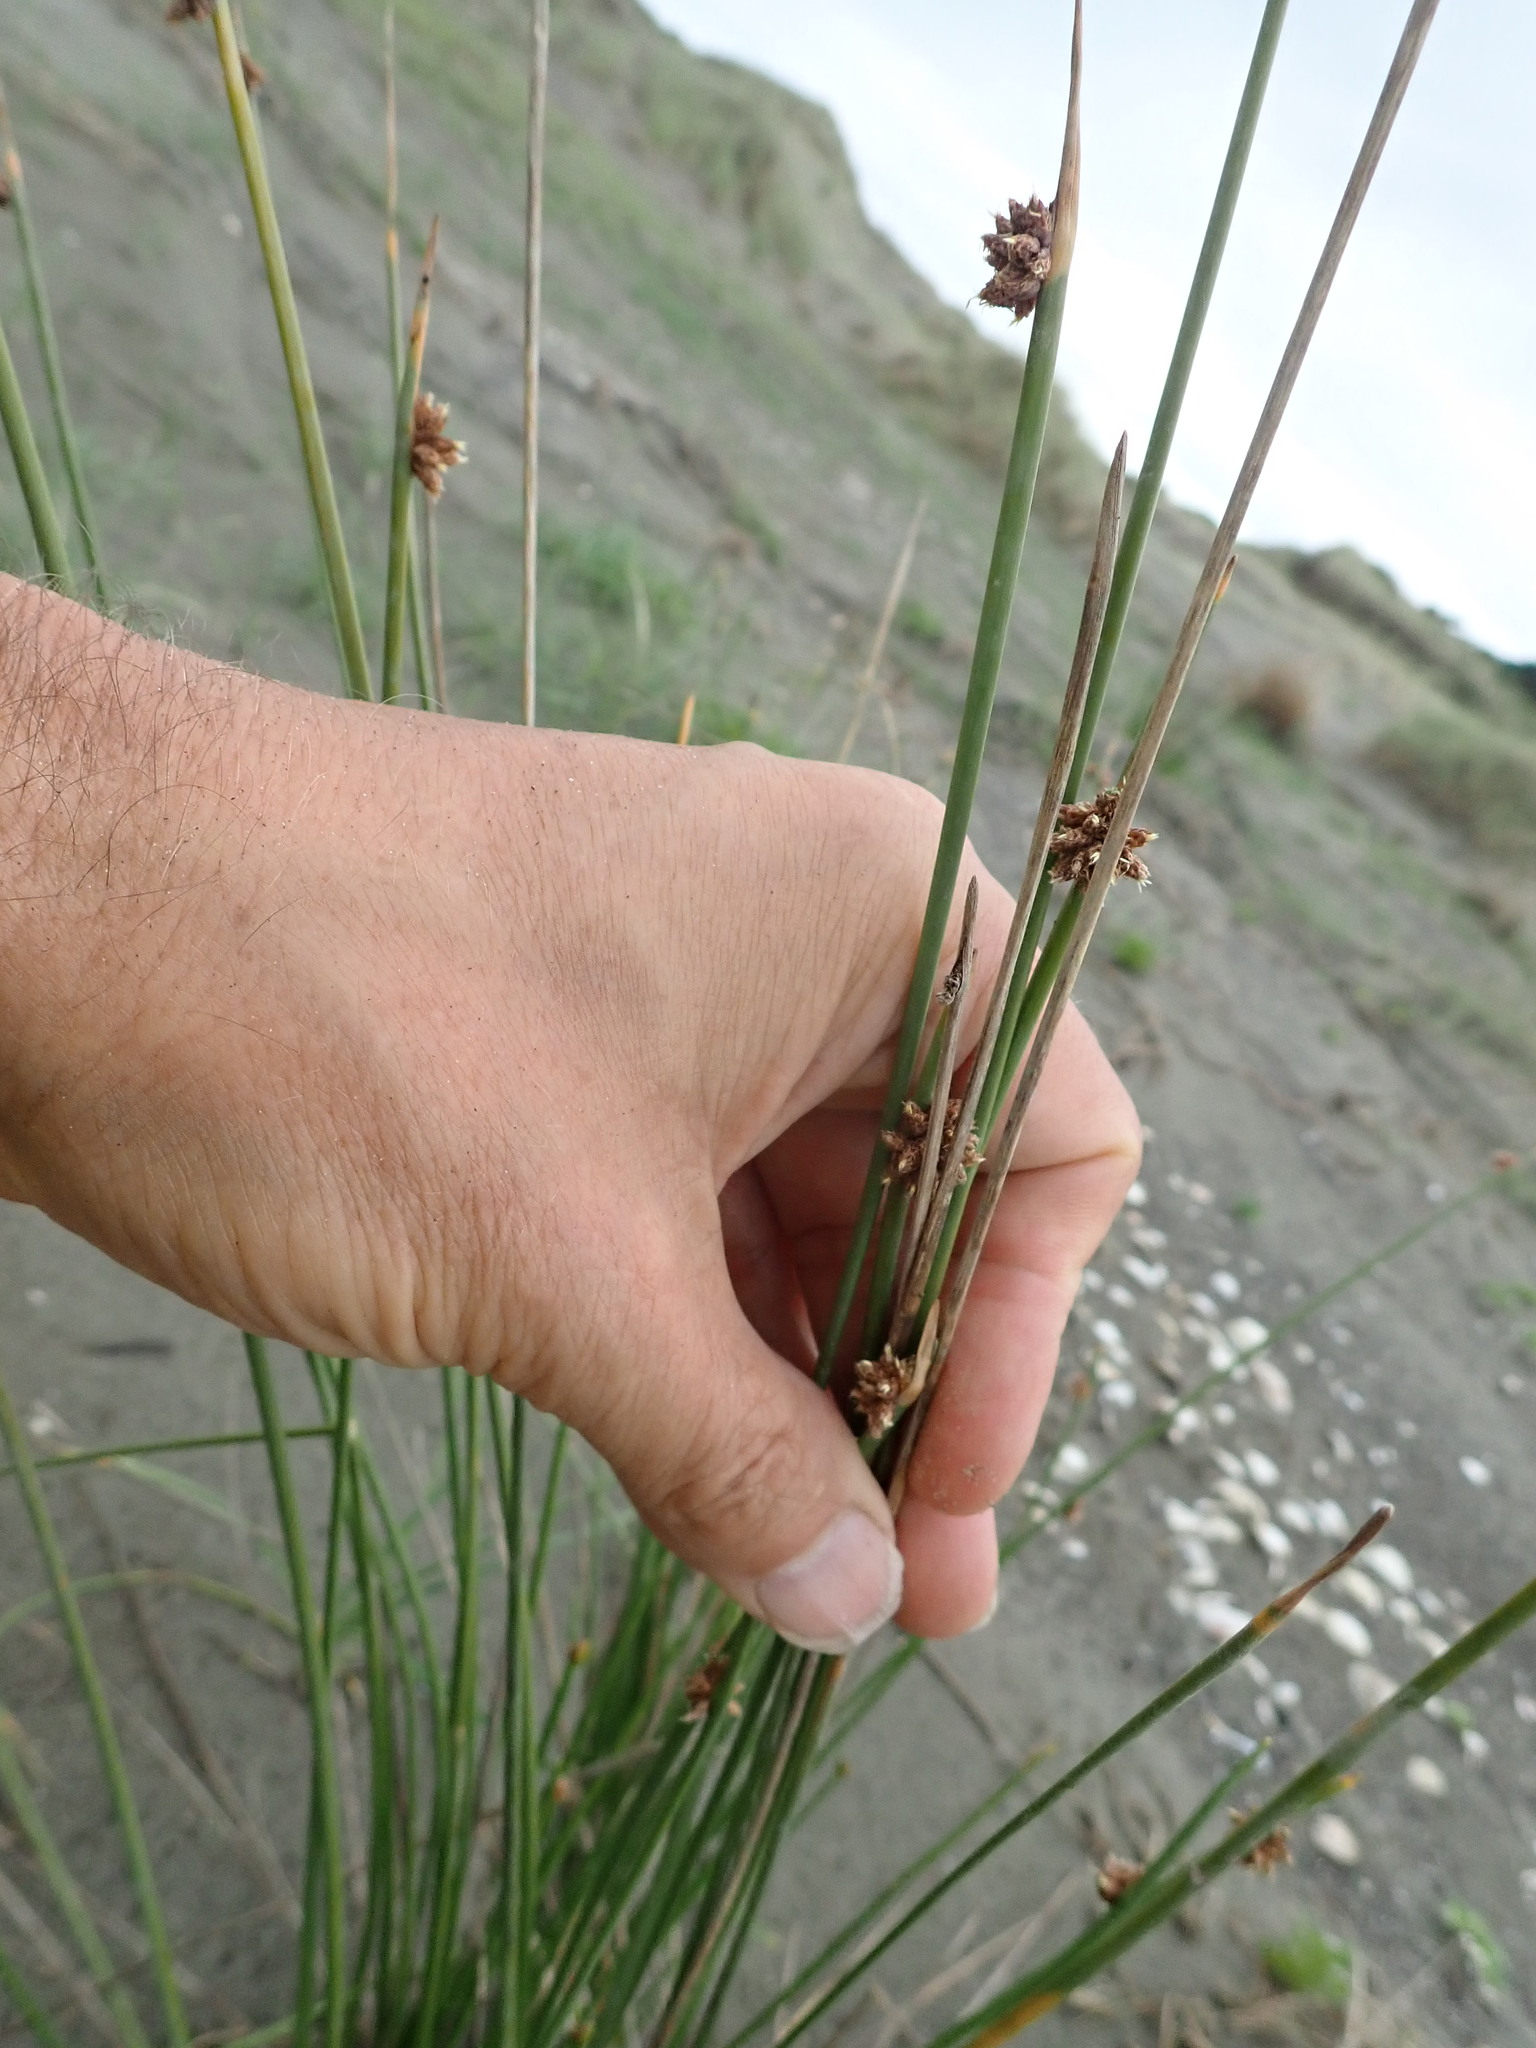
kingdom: Plantae
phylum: Tracheophyta
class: Liliopsida
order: Poales
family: Cyperaceae
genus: Ficinia
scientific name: Ficinia nodosa
